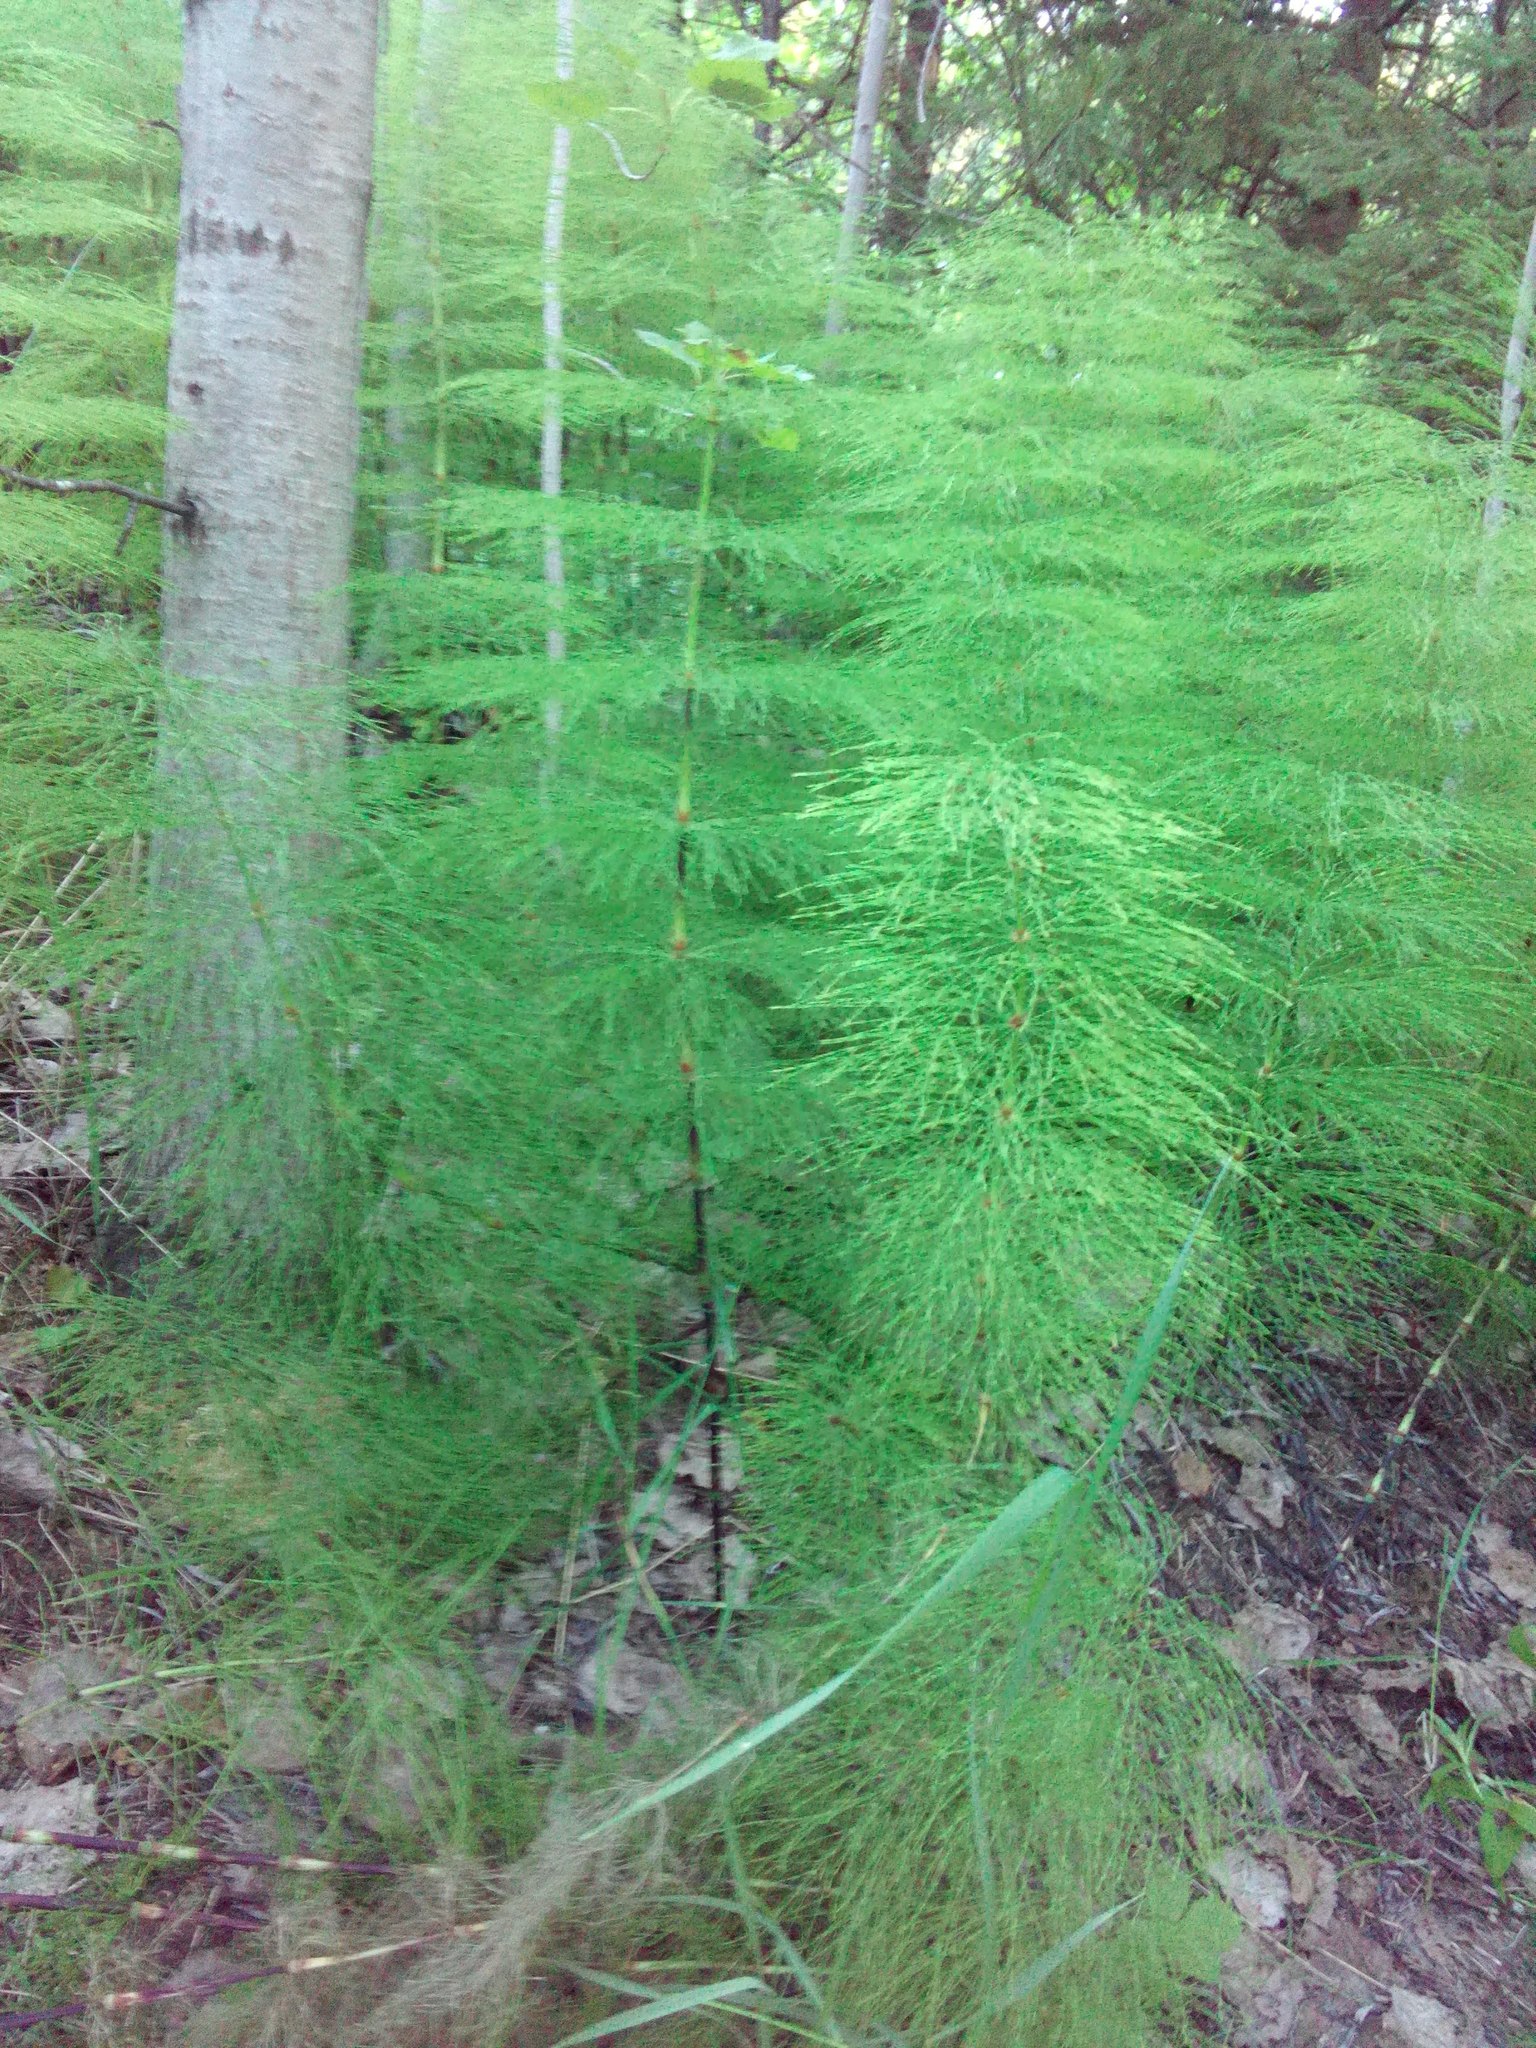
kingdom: Plantae
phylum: Tracheophyta
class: Polypodiopsida
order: Equisetales
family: Equisetaceae
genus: Equisetum
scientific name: Equisetum sylvaticum
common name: Wood horsetail
